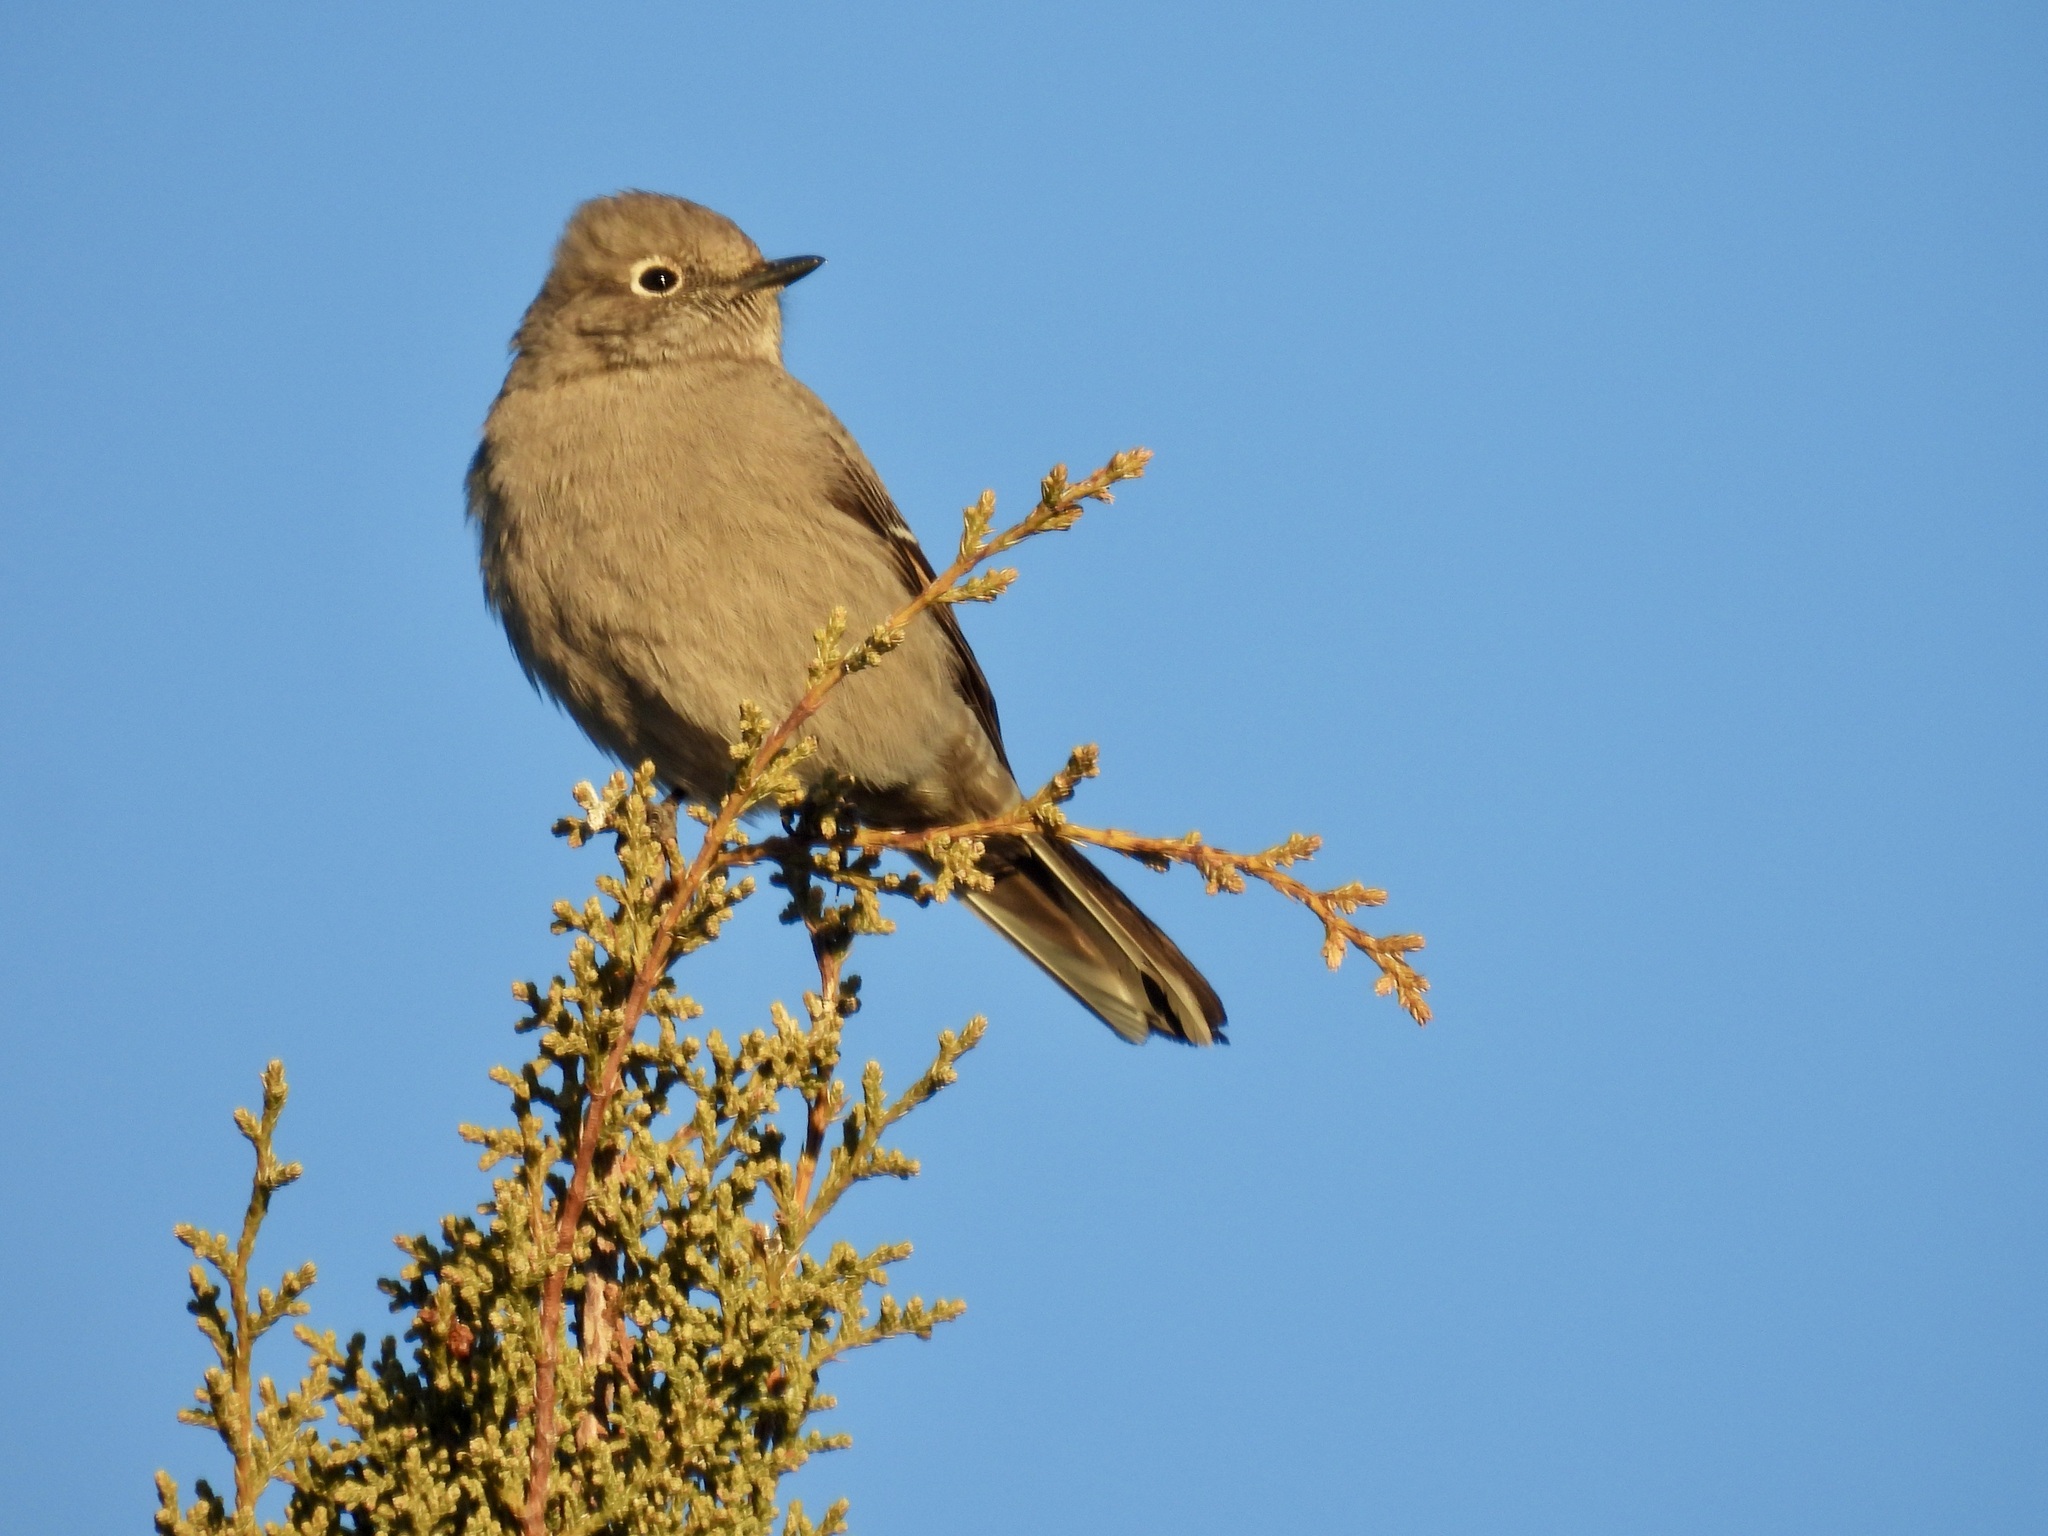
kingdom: Animalia
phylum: Chordata
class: Aves
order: Passeriformes
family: Turdidae
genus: Myadestes
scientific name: Myadestes townsendi
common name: Townsend's solitaire
